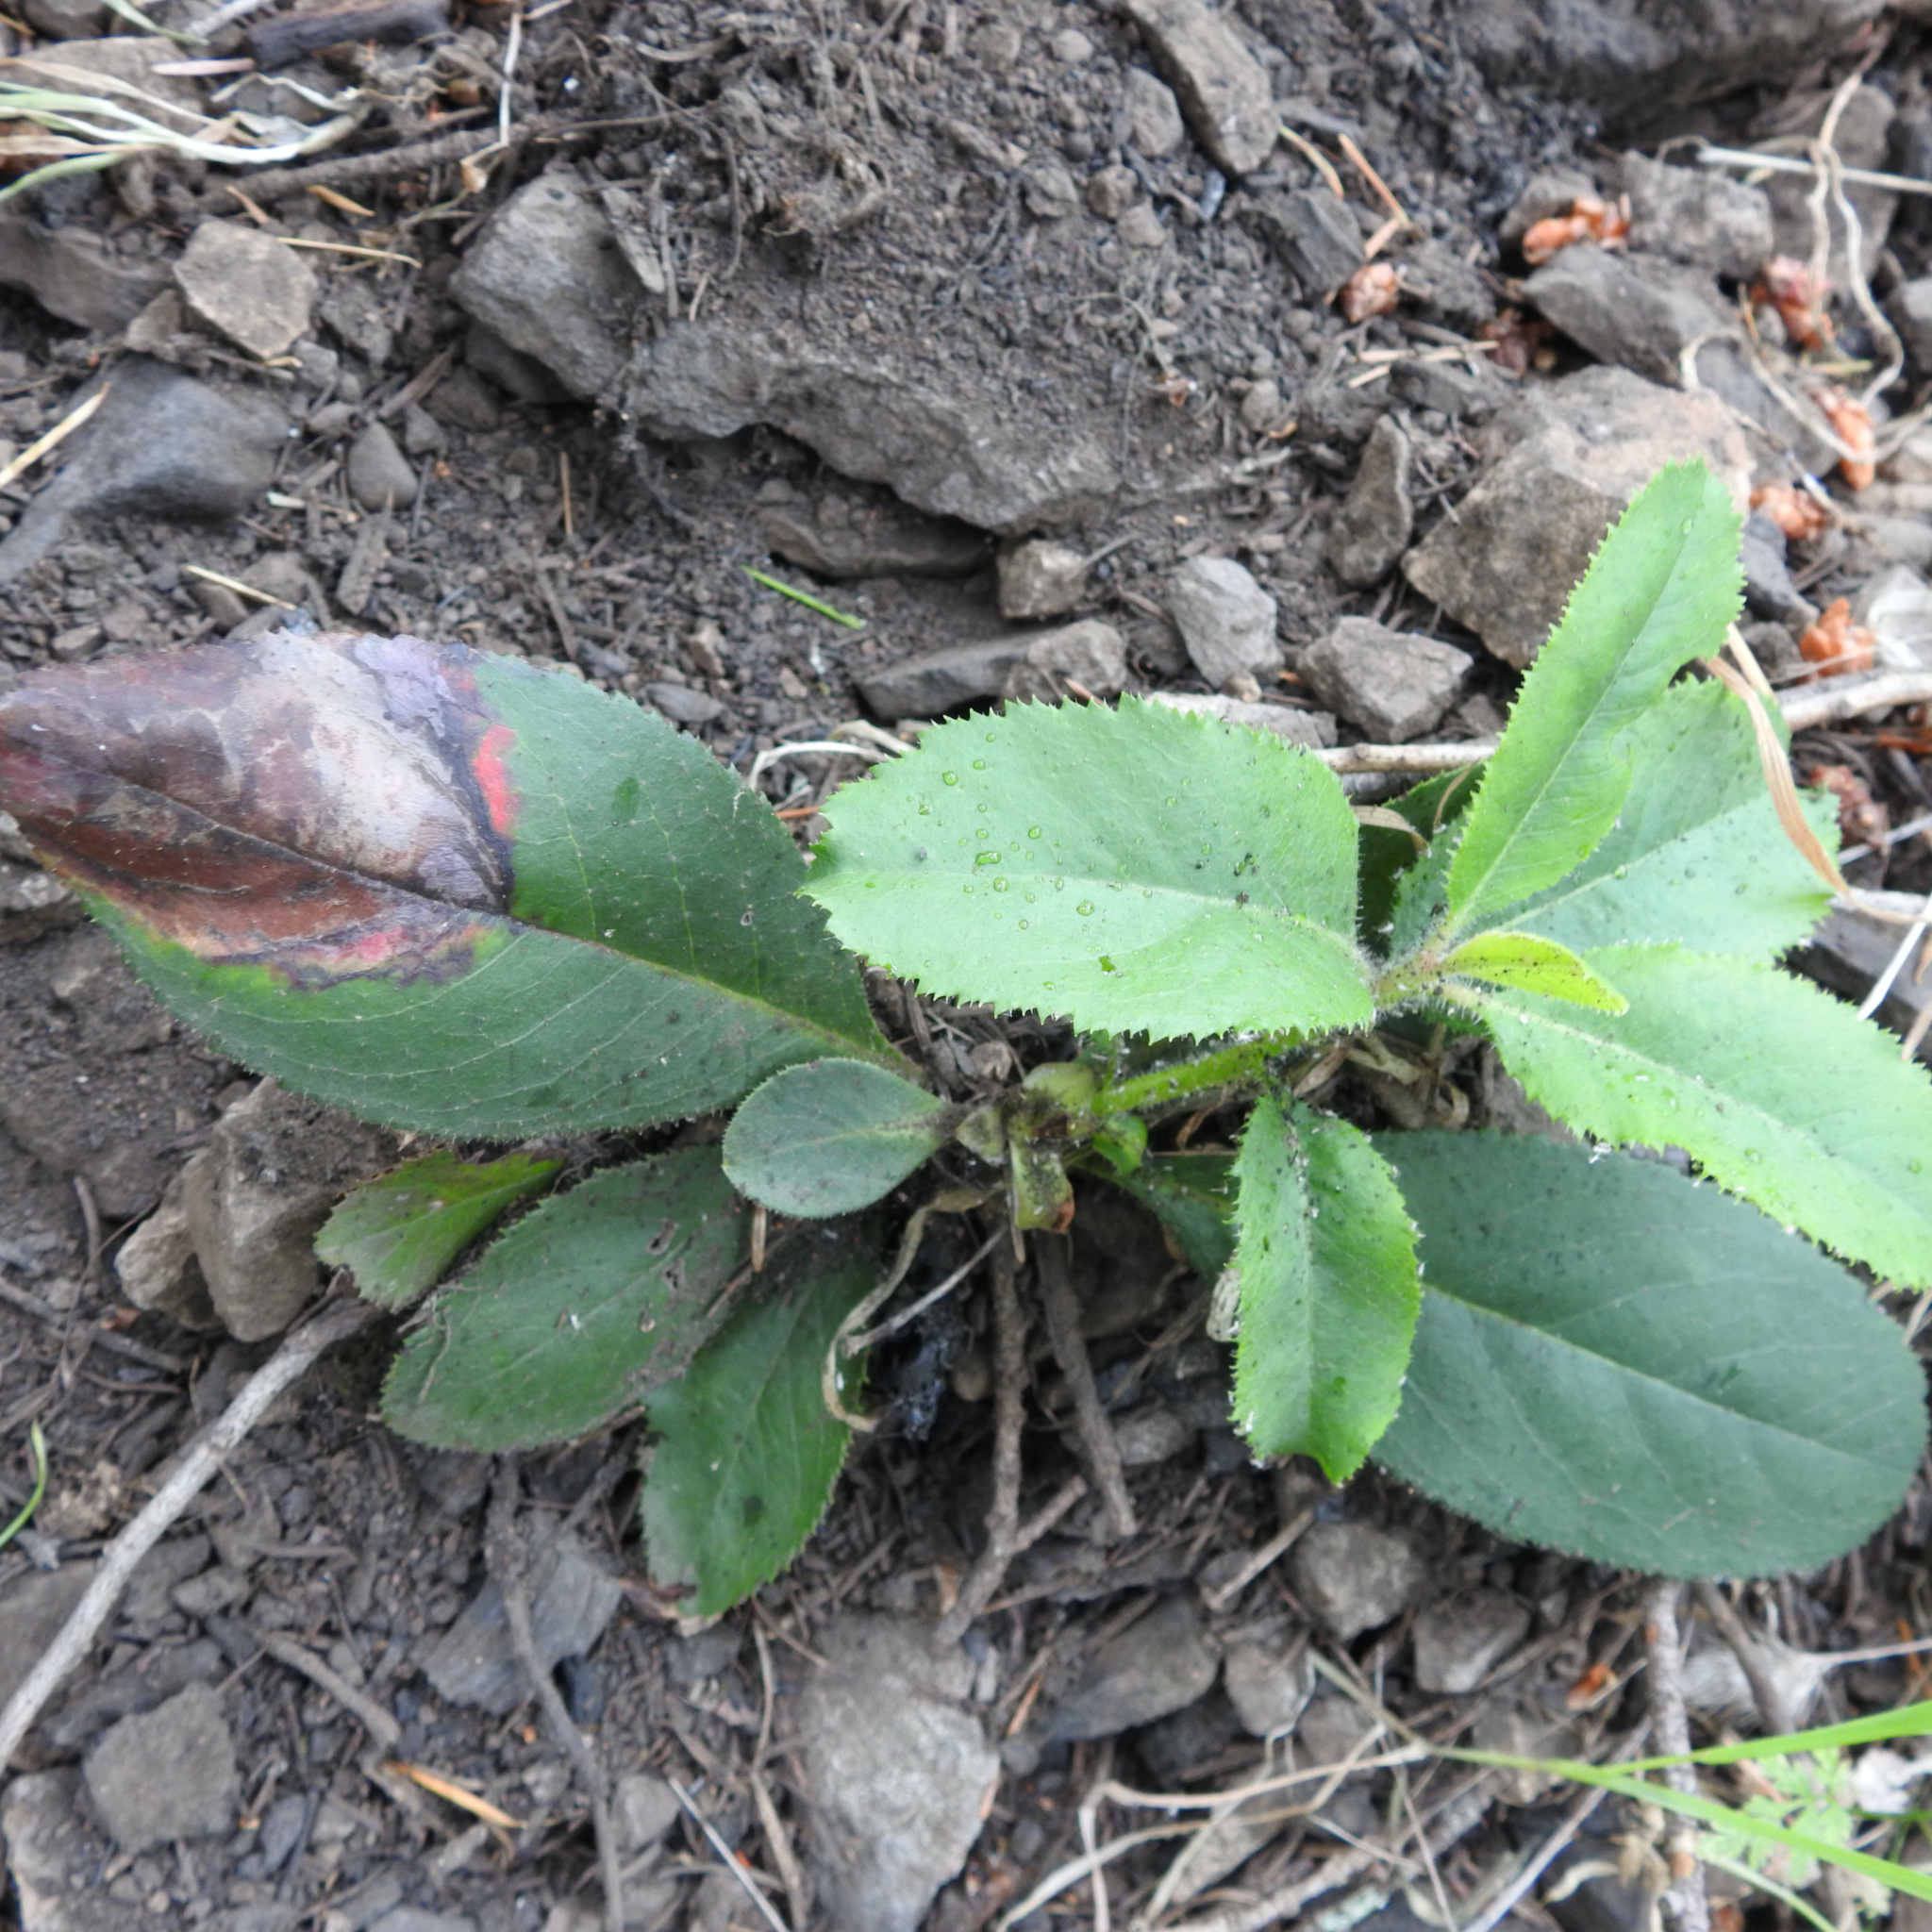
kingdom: Plantae
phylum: Tracheophyta
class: Magnoliopsida
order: Ericales
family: Ericaceae
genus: Arbutus
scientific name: Arbutus menziesii
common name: Pacific madrone
